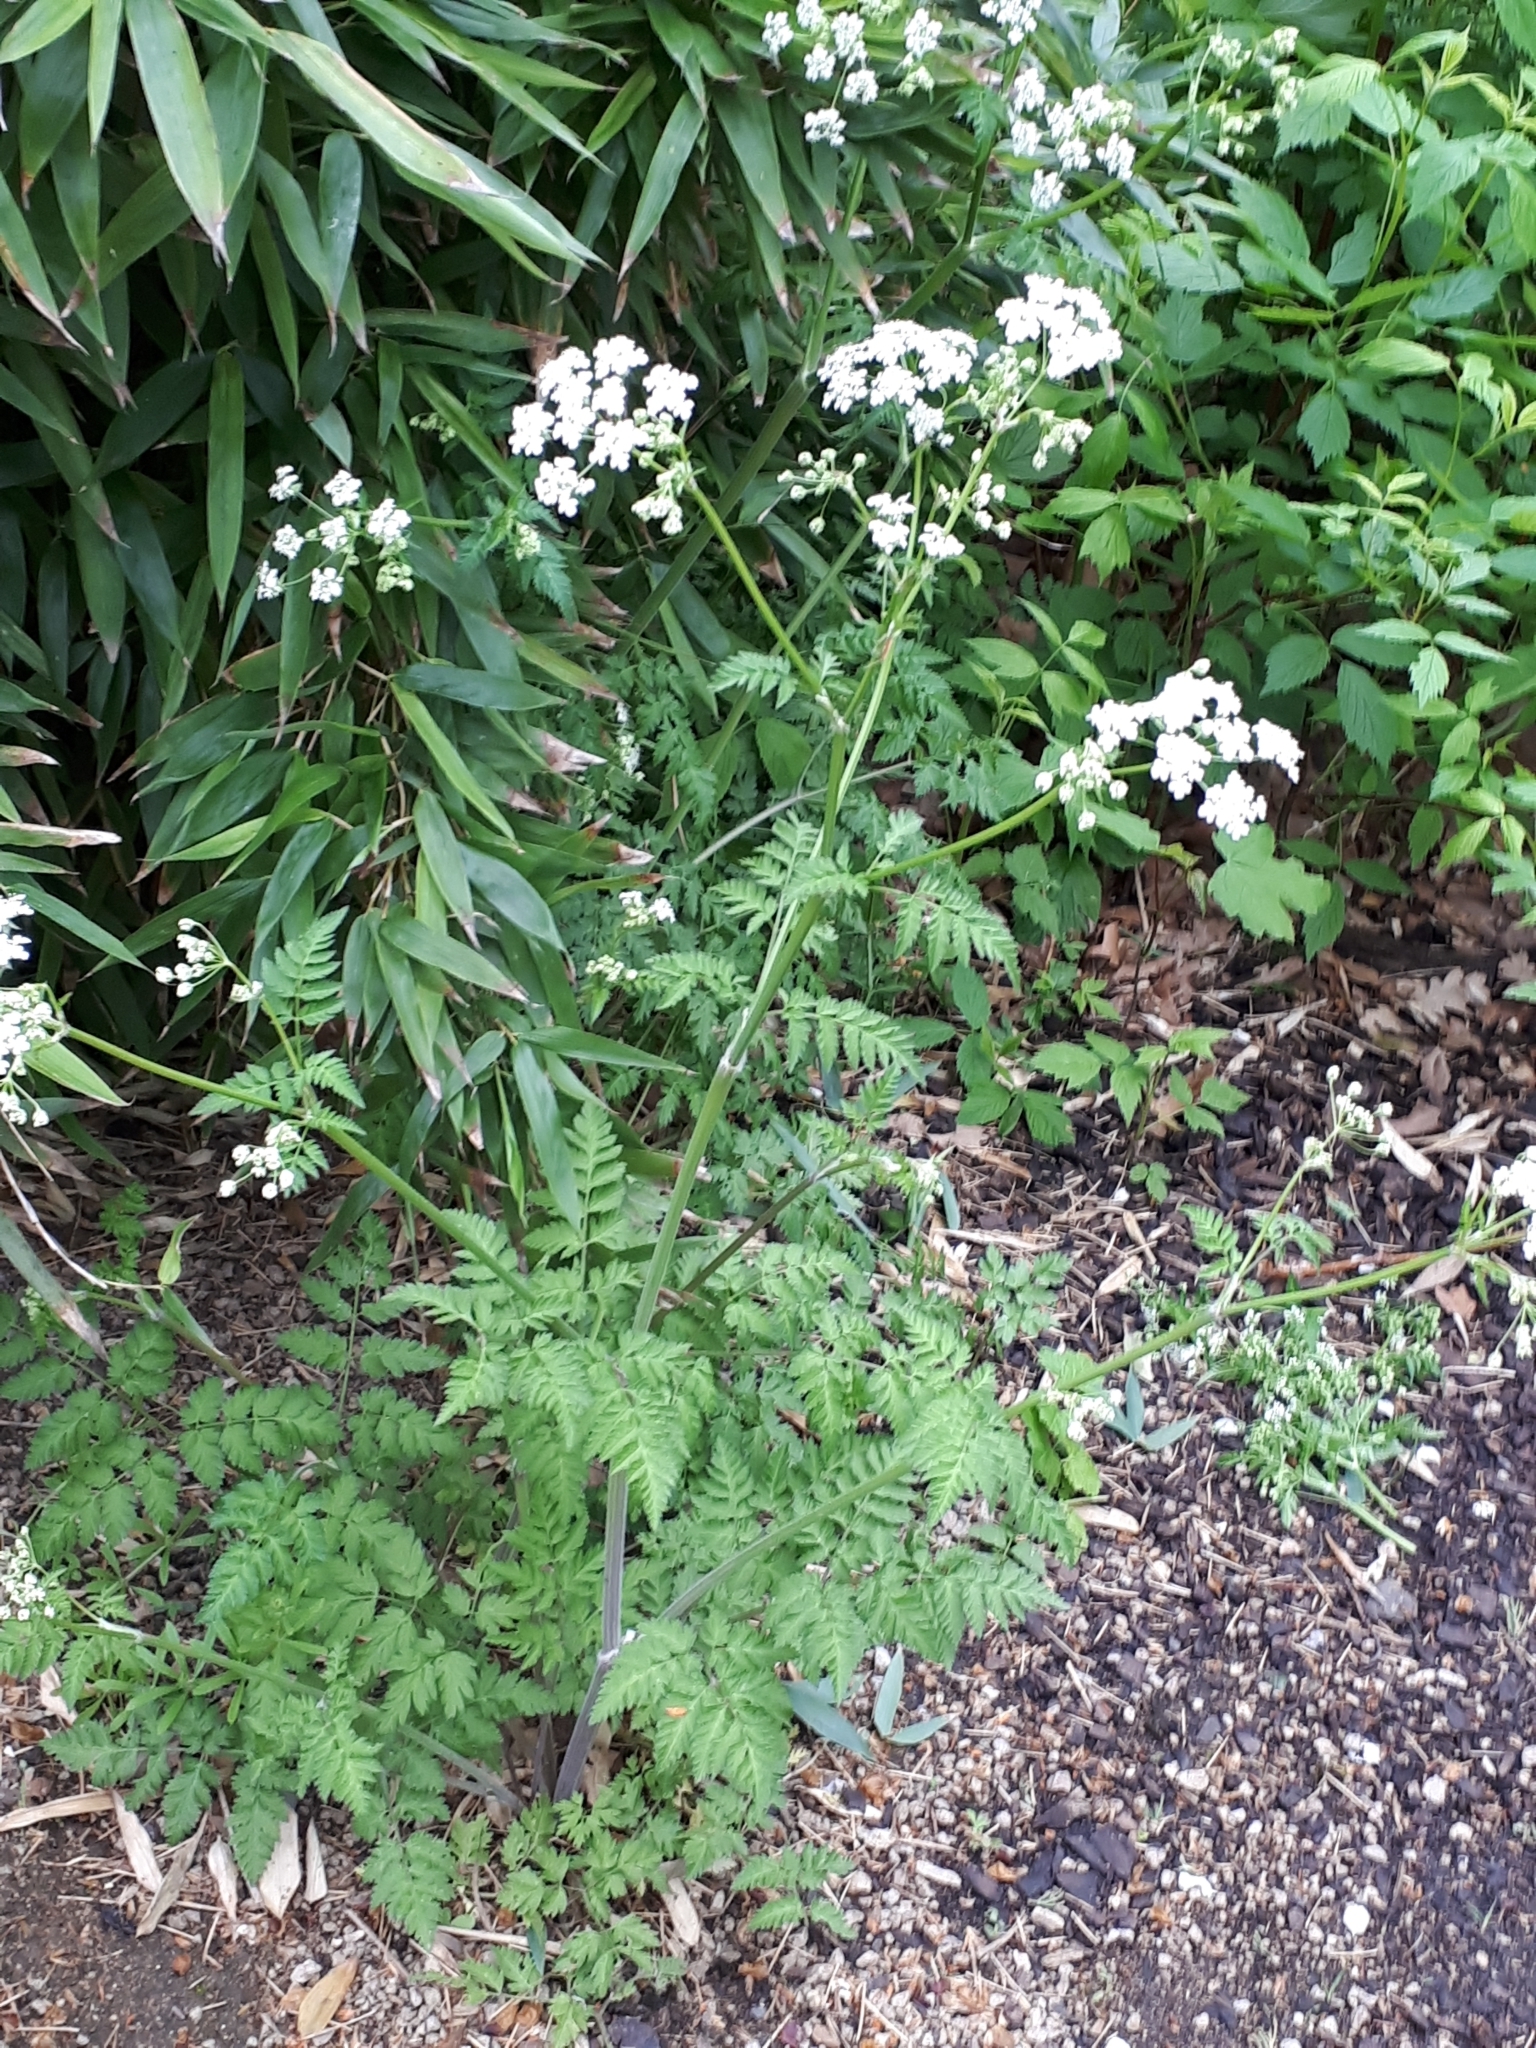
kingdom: Plantae
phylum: Tracheophyta
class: Magnoliopsida
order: Apiales
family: Apiaceae
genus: Anthriscus
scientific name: Anthriscus sylvestris
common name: Cow parsley
